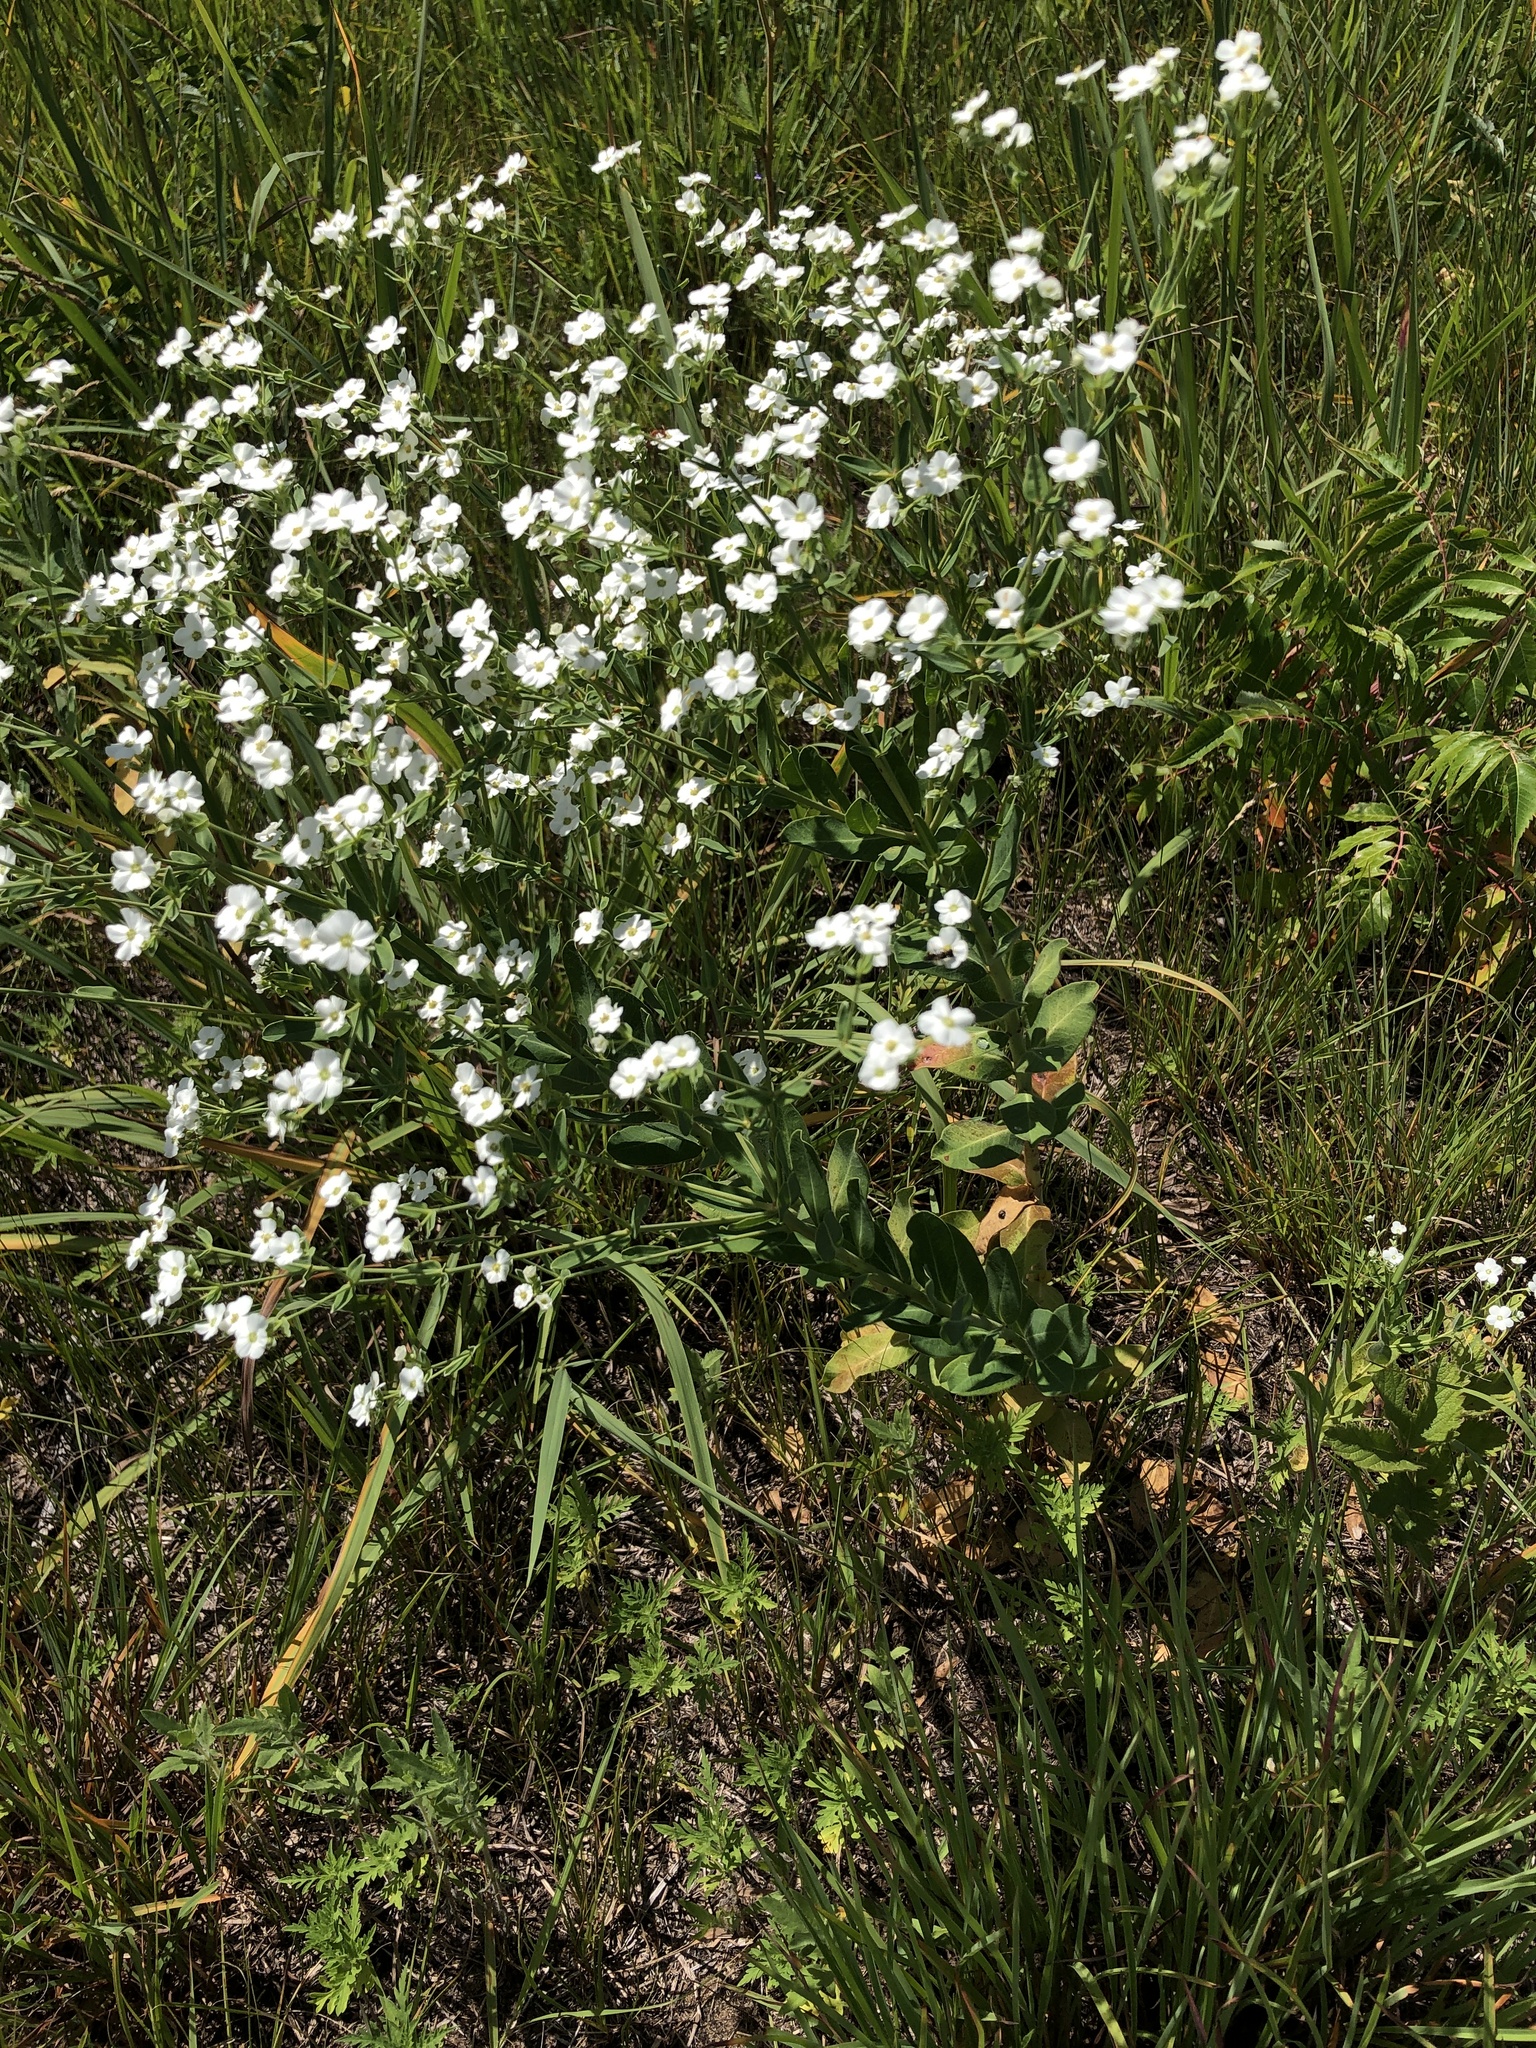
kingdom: Plantae
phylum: Tracheophyta
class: Magnoliopsida
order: Malpighiales
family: Euphorbiaceae
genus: Euphorbia
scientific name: Euphorbia corollata
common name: Flowering spurge
